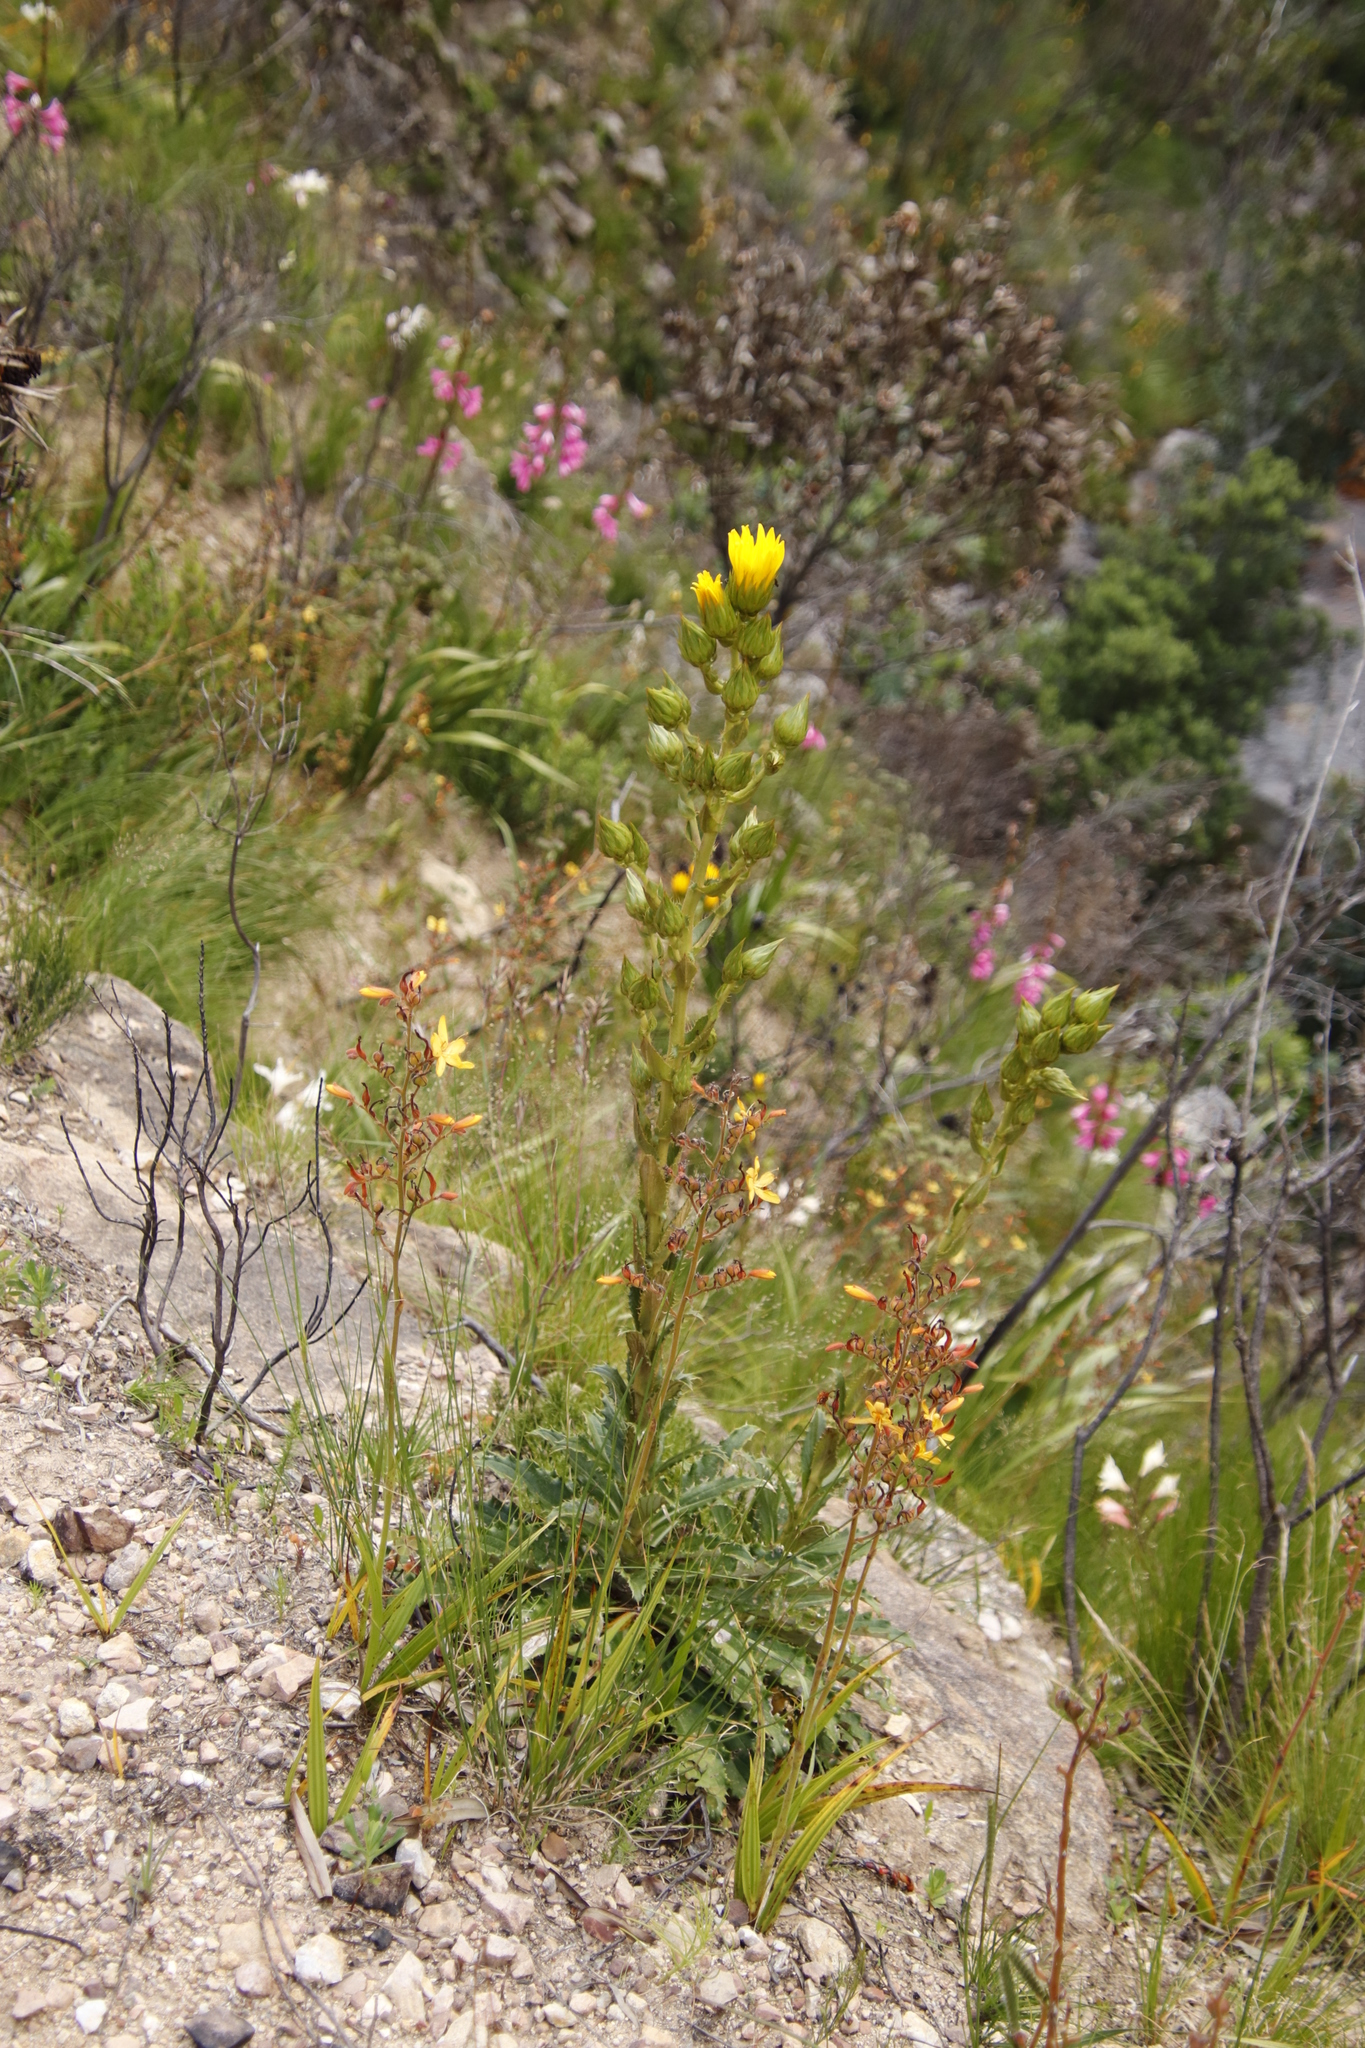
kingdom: Plantae
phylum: Tracheophyta
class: Magnoliopsida
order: Asterales
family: Asteraceae
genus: Berkheya
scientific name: Berkheya armata
